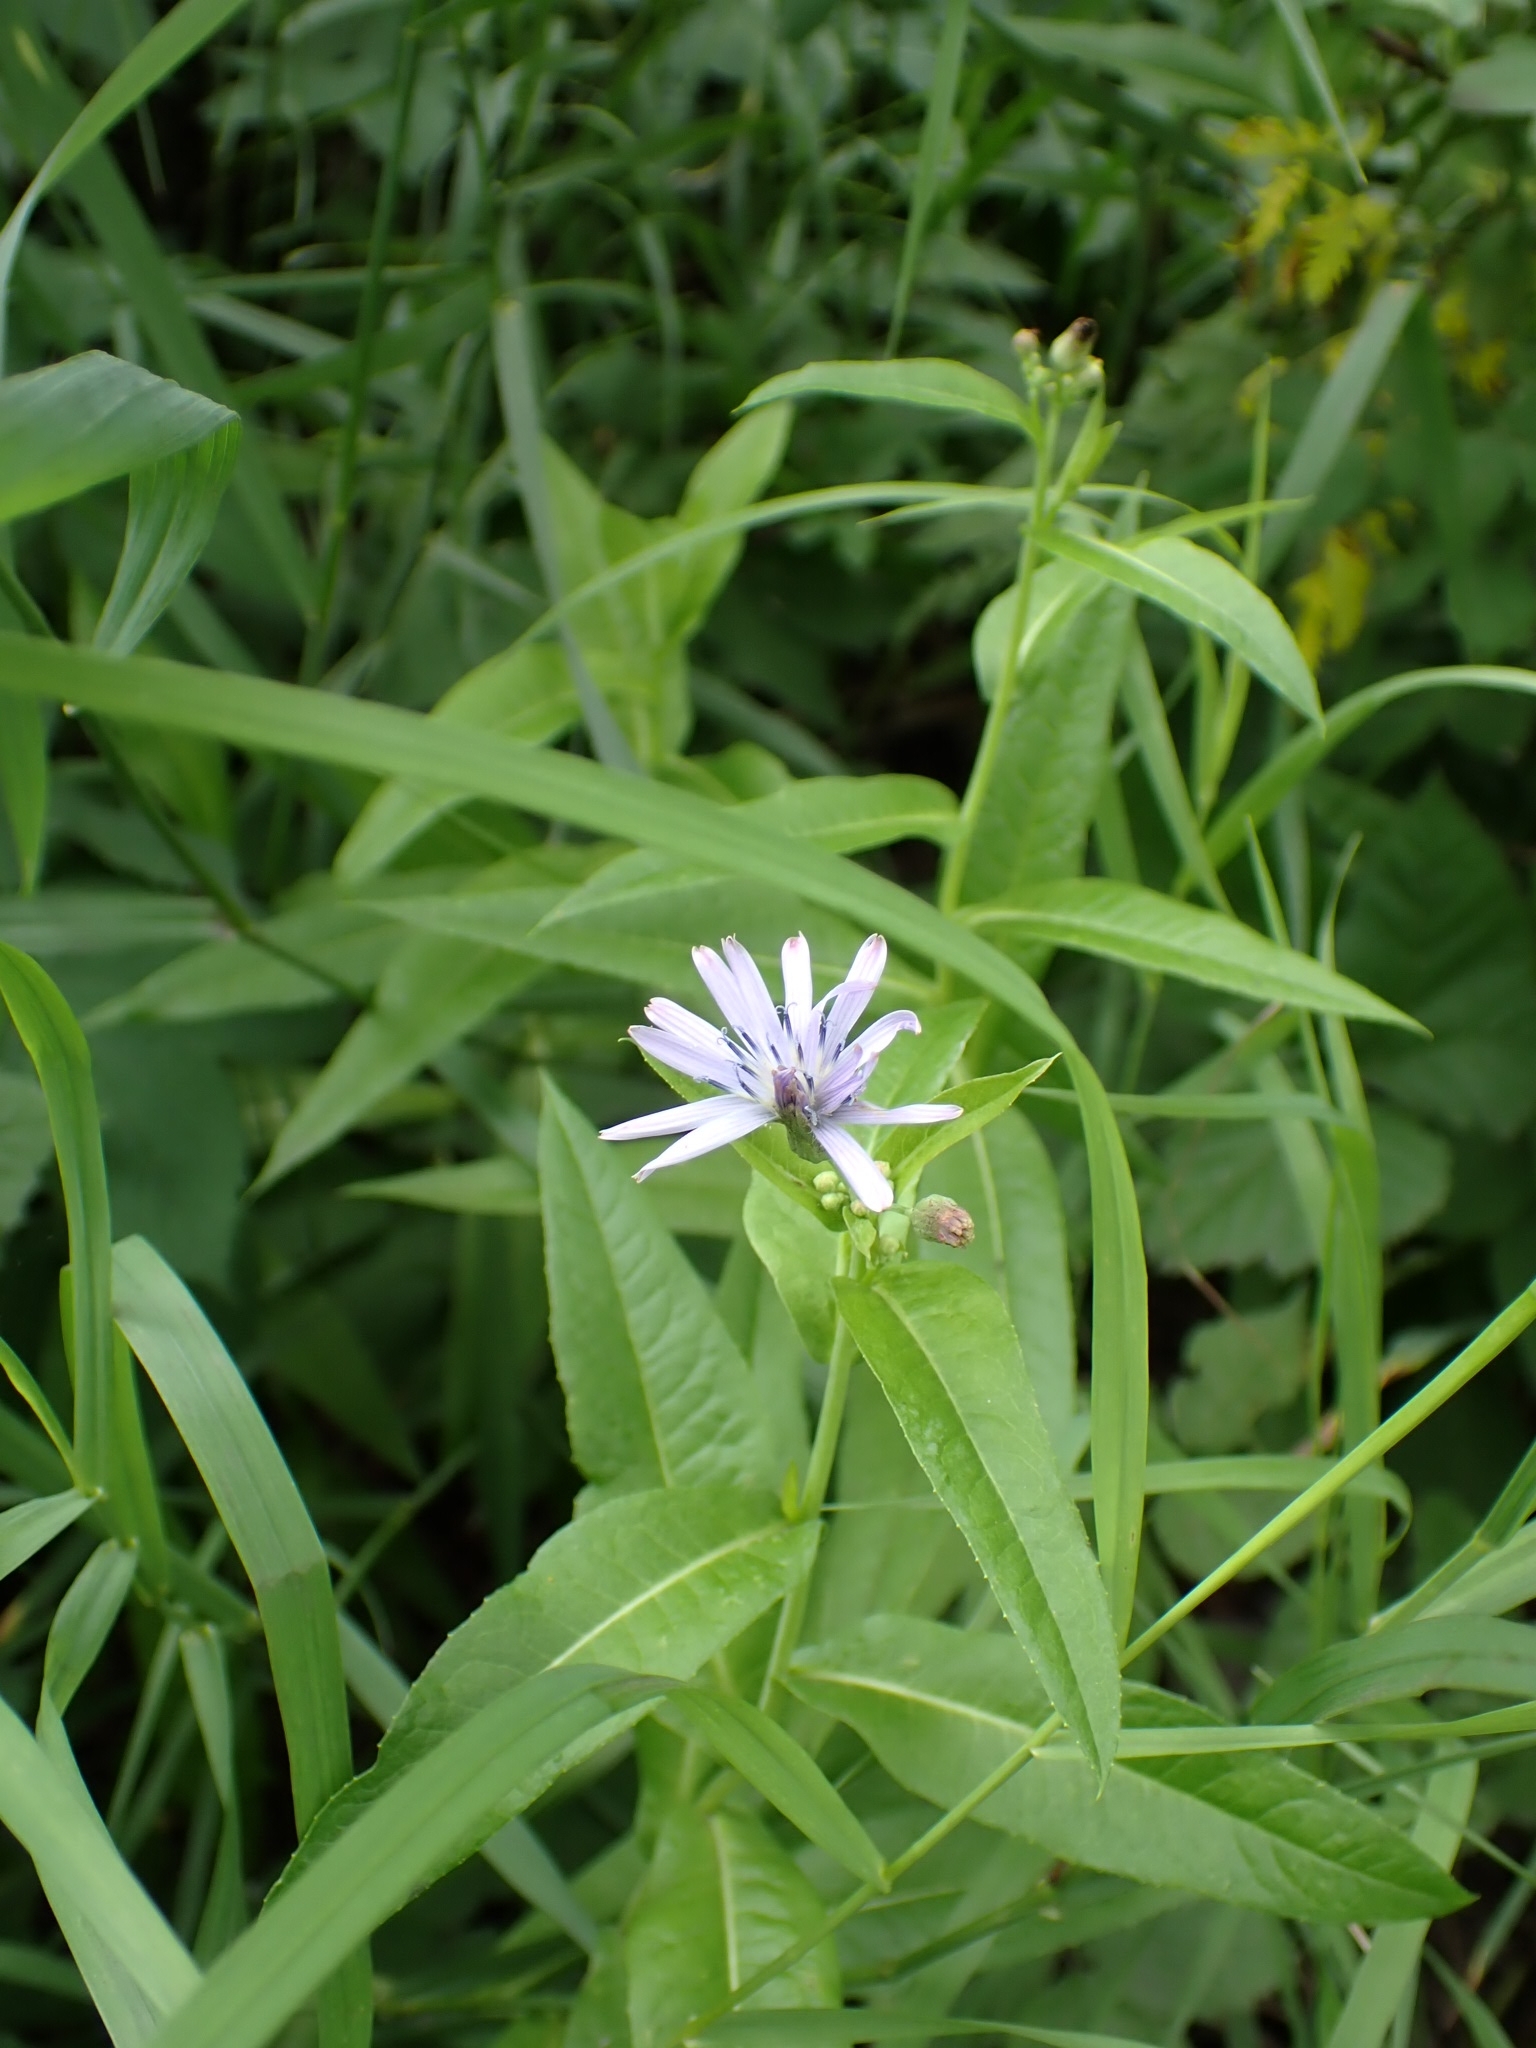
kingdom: Plantae
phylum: Tracheophyta
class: Magnoliopsida
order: Asterales
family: Asteraceae
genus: Lactuca
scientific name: Lactuca sibirica
